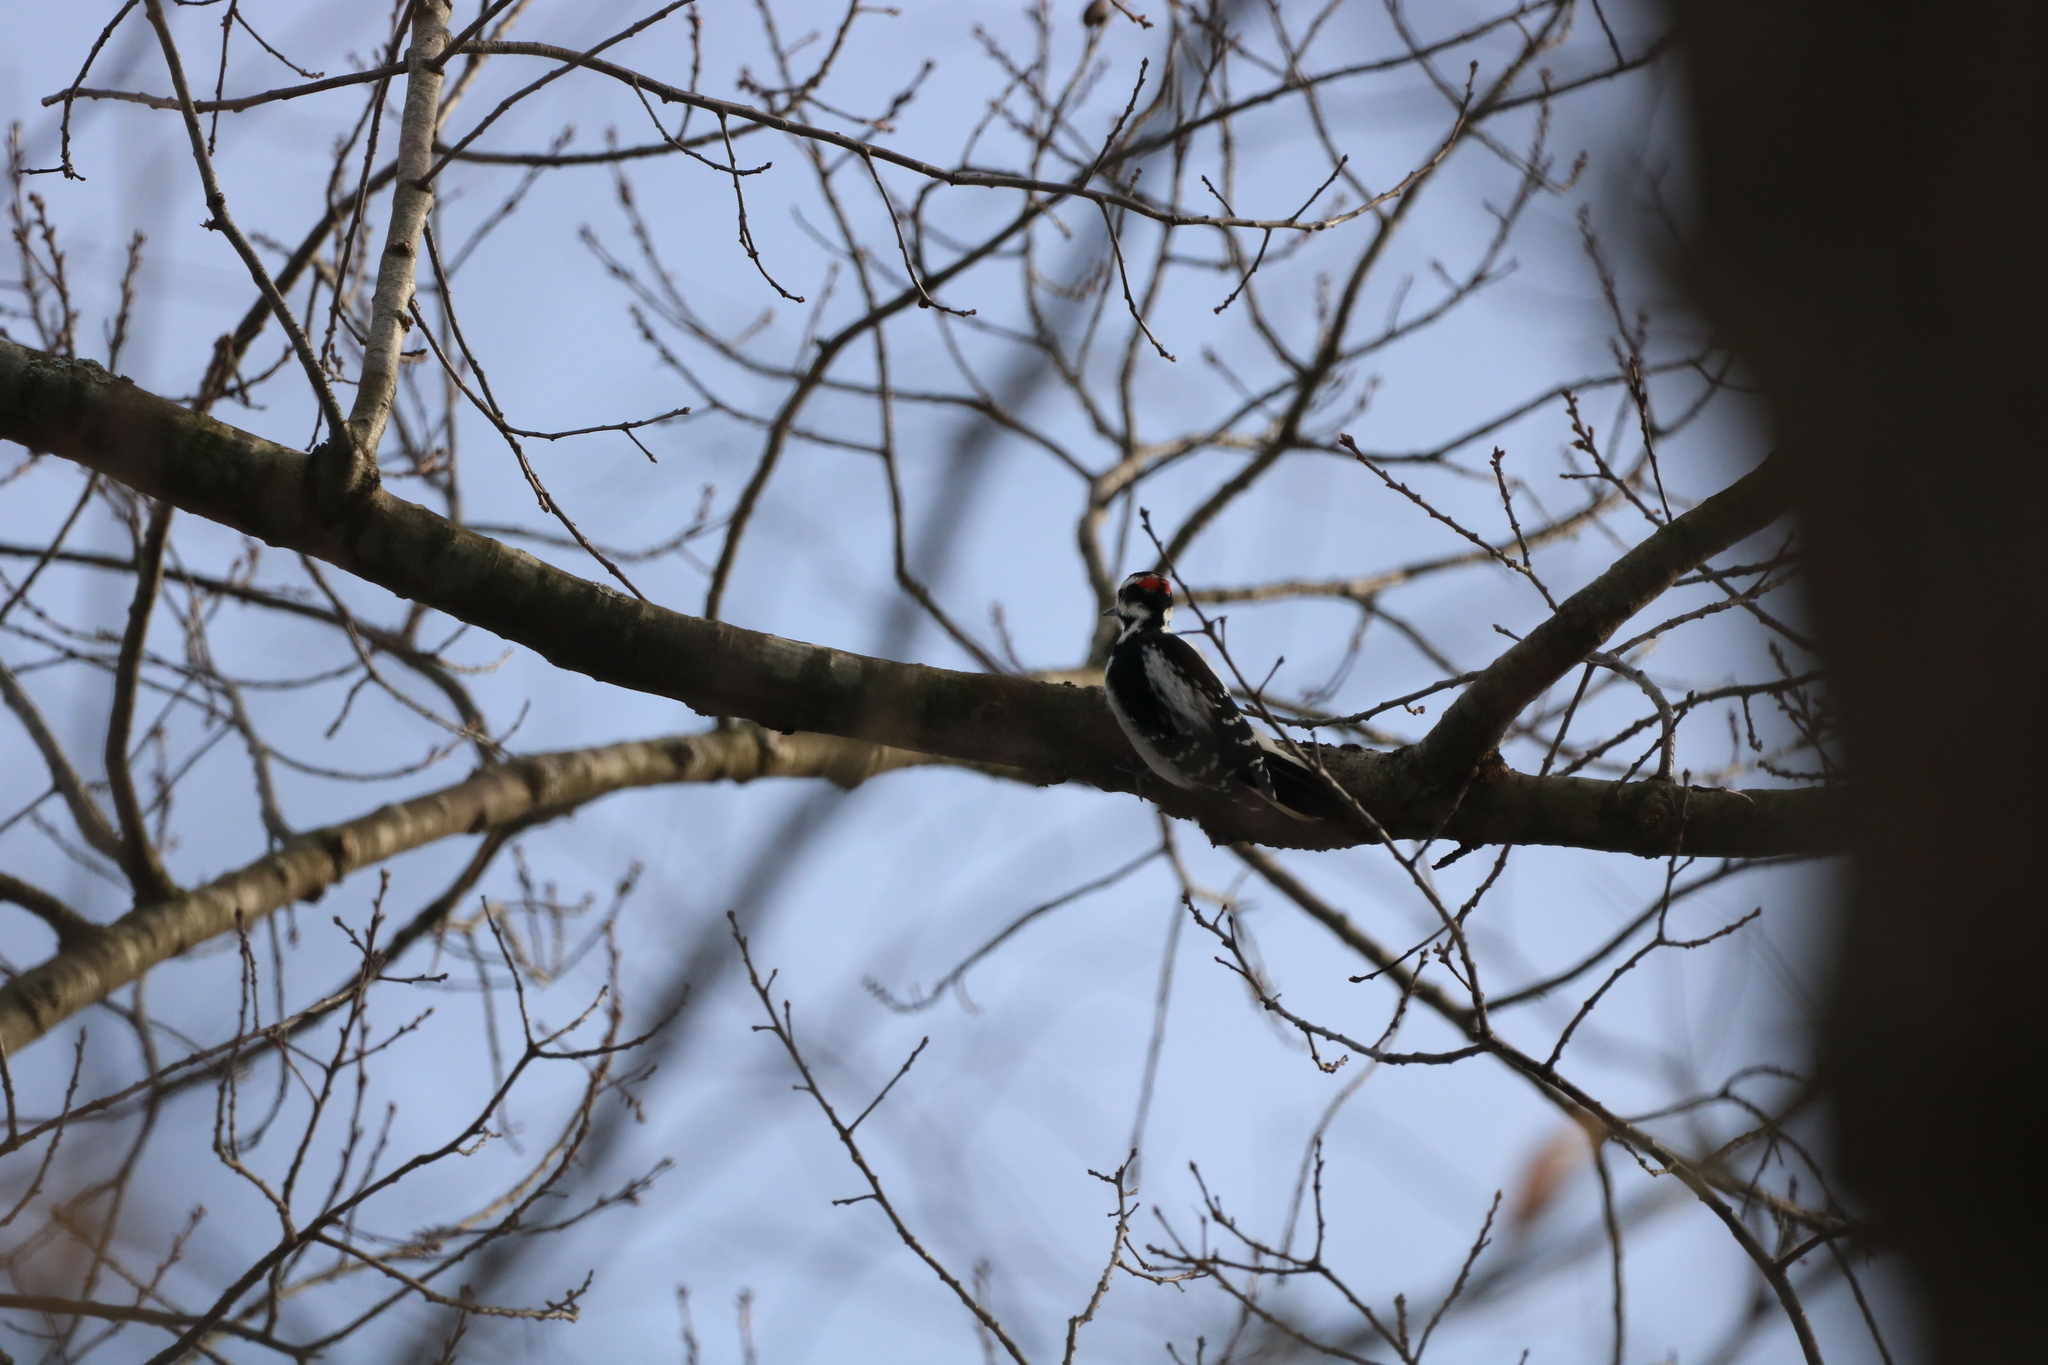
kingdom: Animalia
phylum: Chordata
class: Aves
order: Piciformes
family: Picidae
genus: Leuconotopicus
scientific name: Leuconotopicus villosus
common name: Hairy woodpecker
